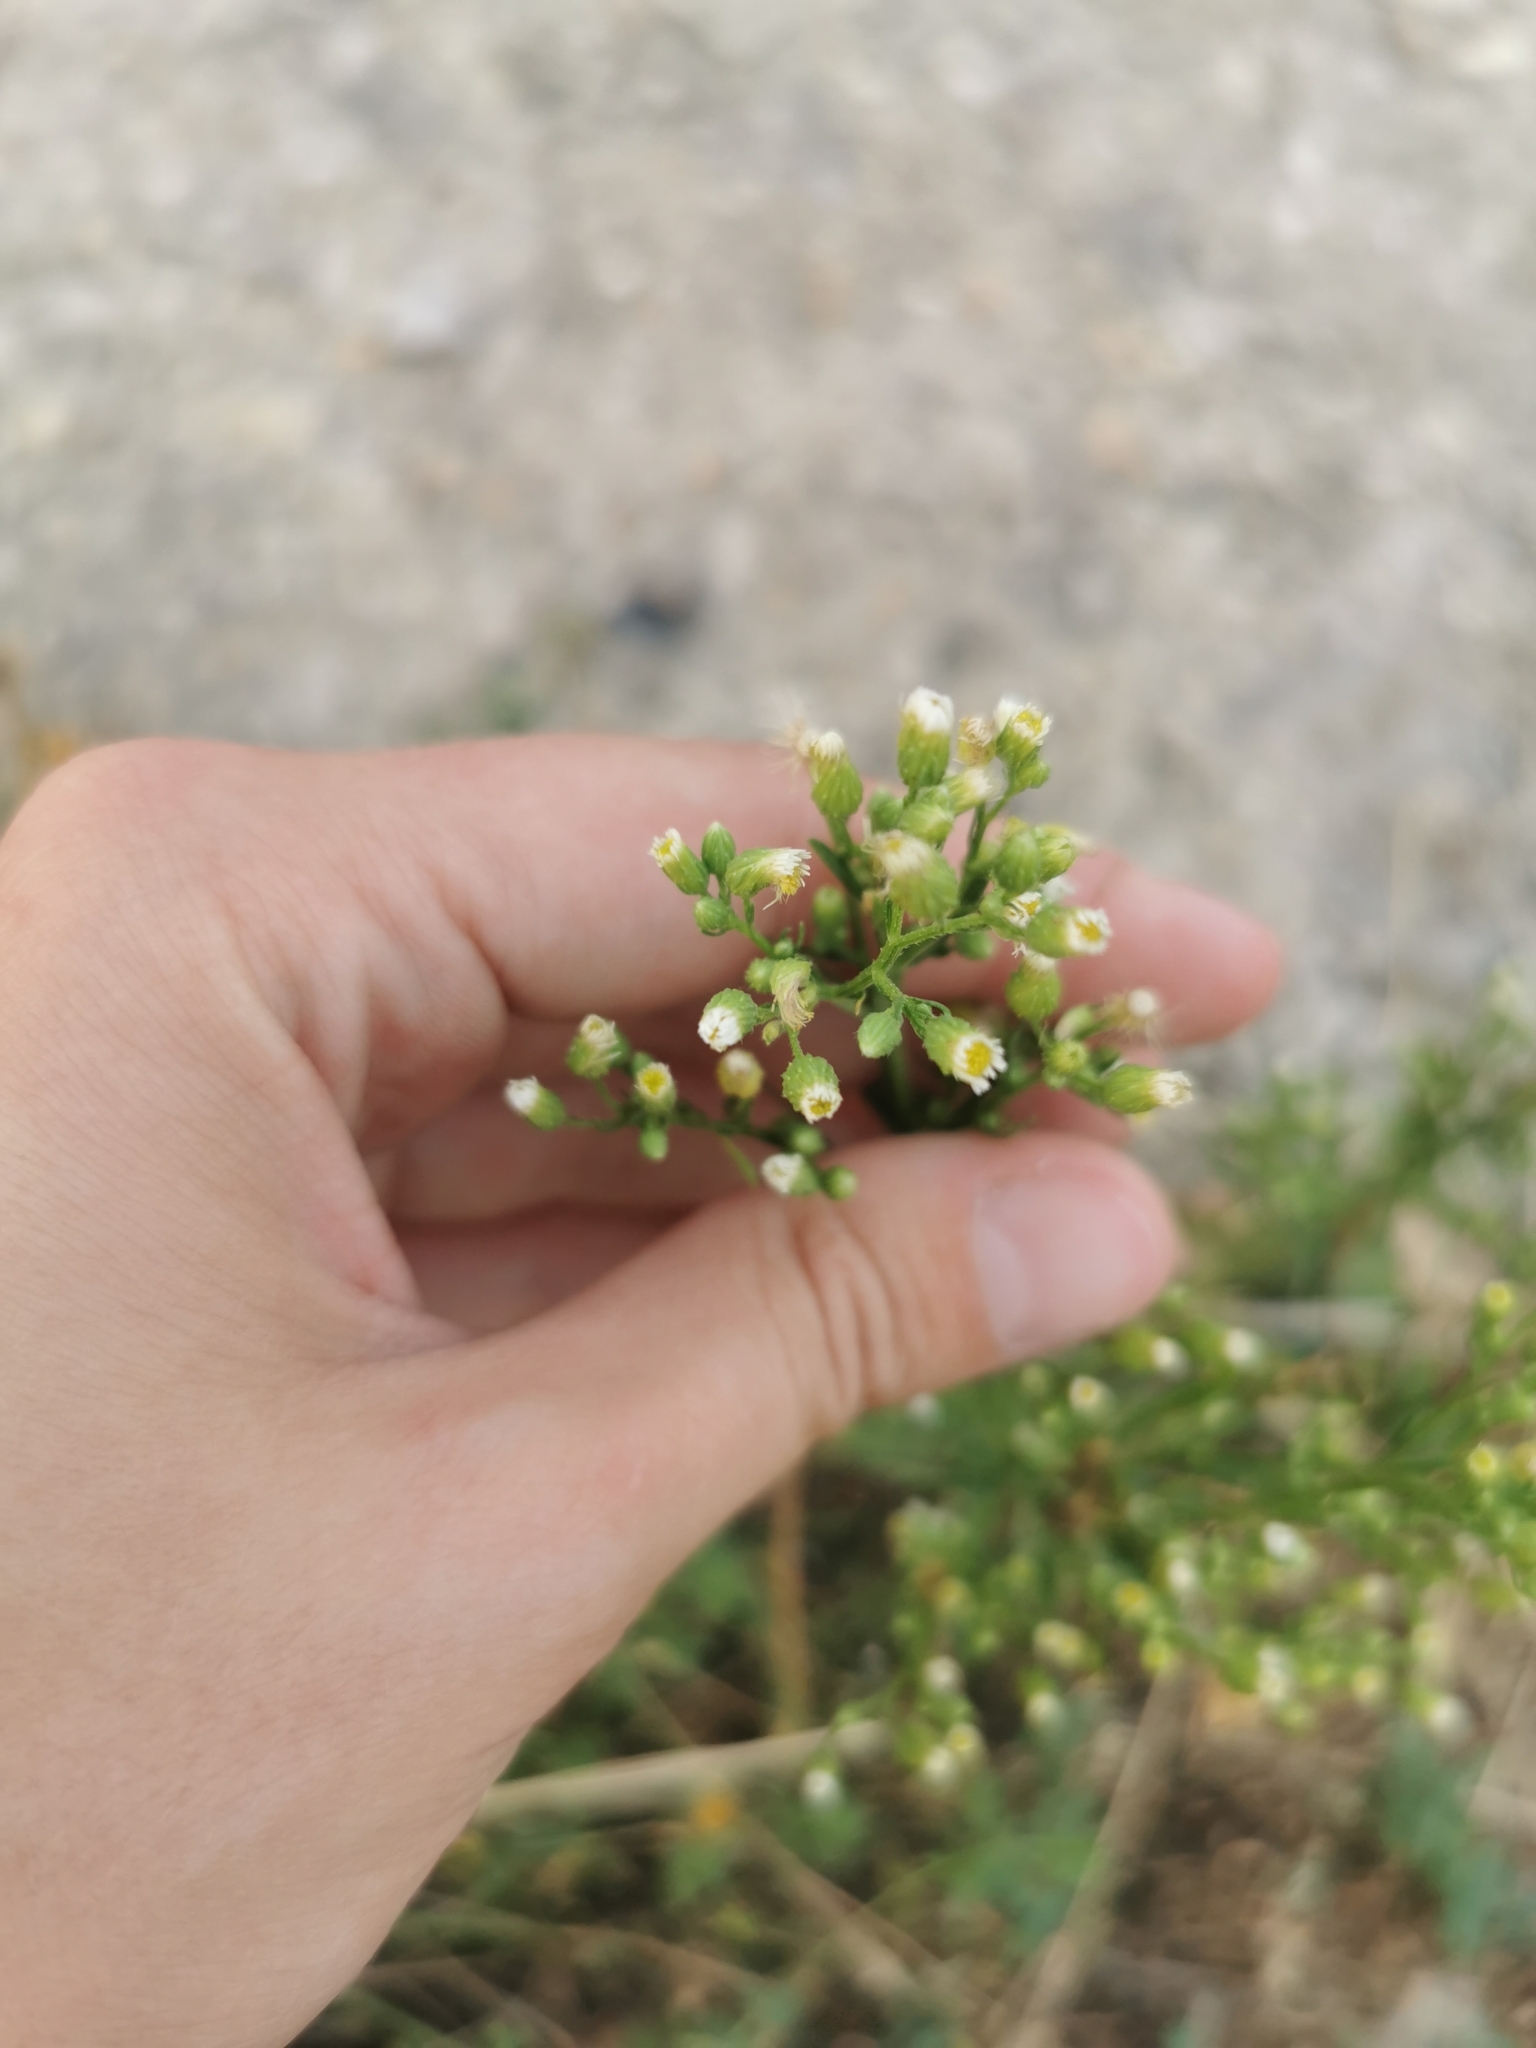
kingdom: Plantae
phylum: Tracheophyta
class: Magnoliopsida
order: Asterales
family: Asteraceae
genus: Erigeron
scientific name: Erigeron canadensis
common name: Canadian fleabane
